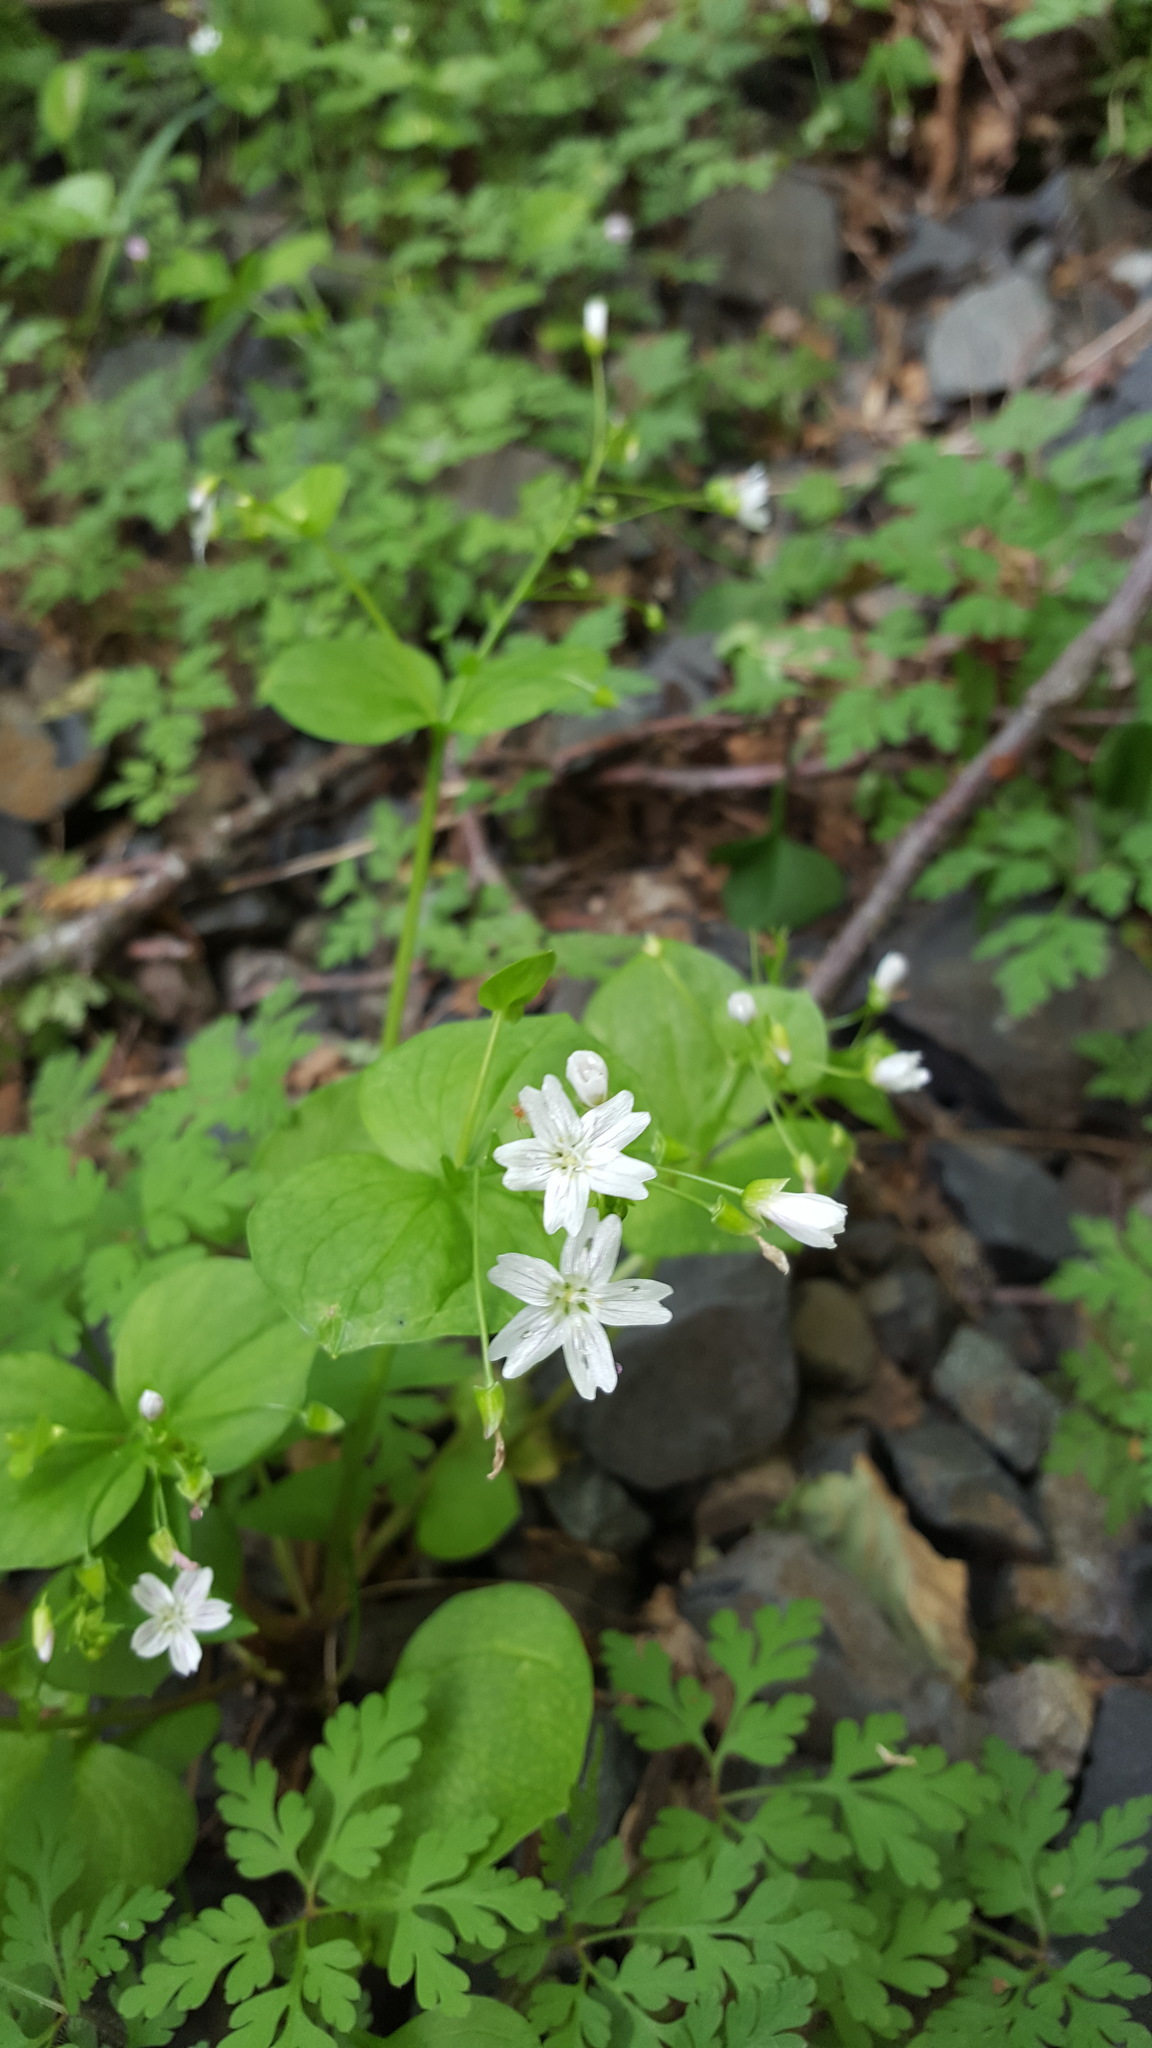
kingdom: Plantae
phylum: Tracheophyta
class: Magnoliopsida
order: Caryophyllales
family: Montiaceae
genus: Claytonia
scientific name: Claytonia sibirica
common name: Pink purslane
